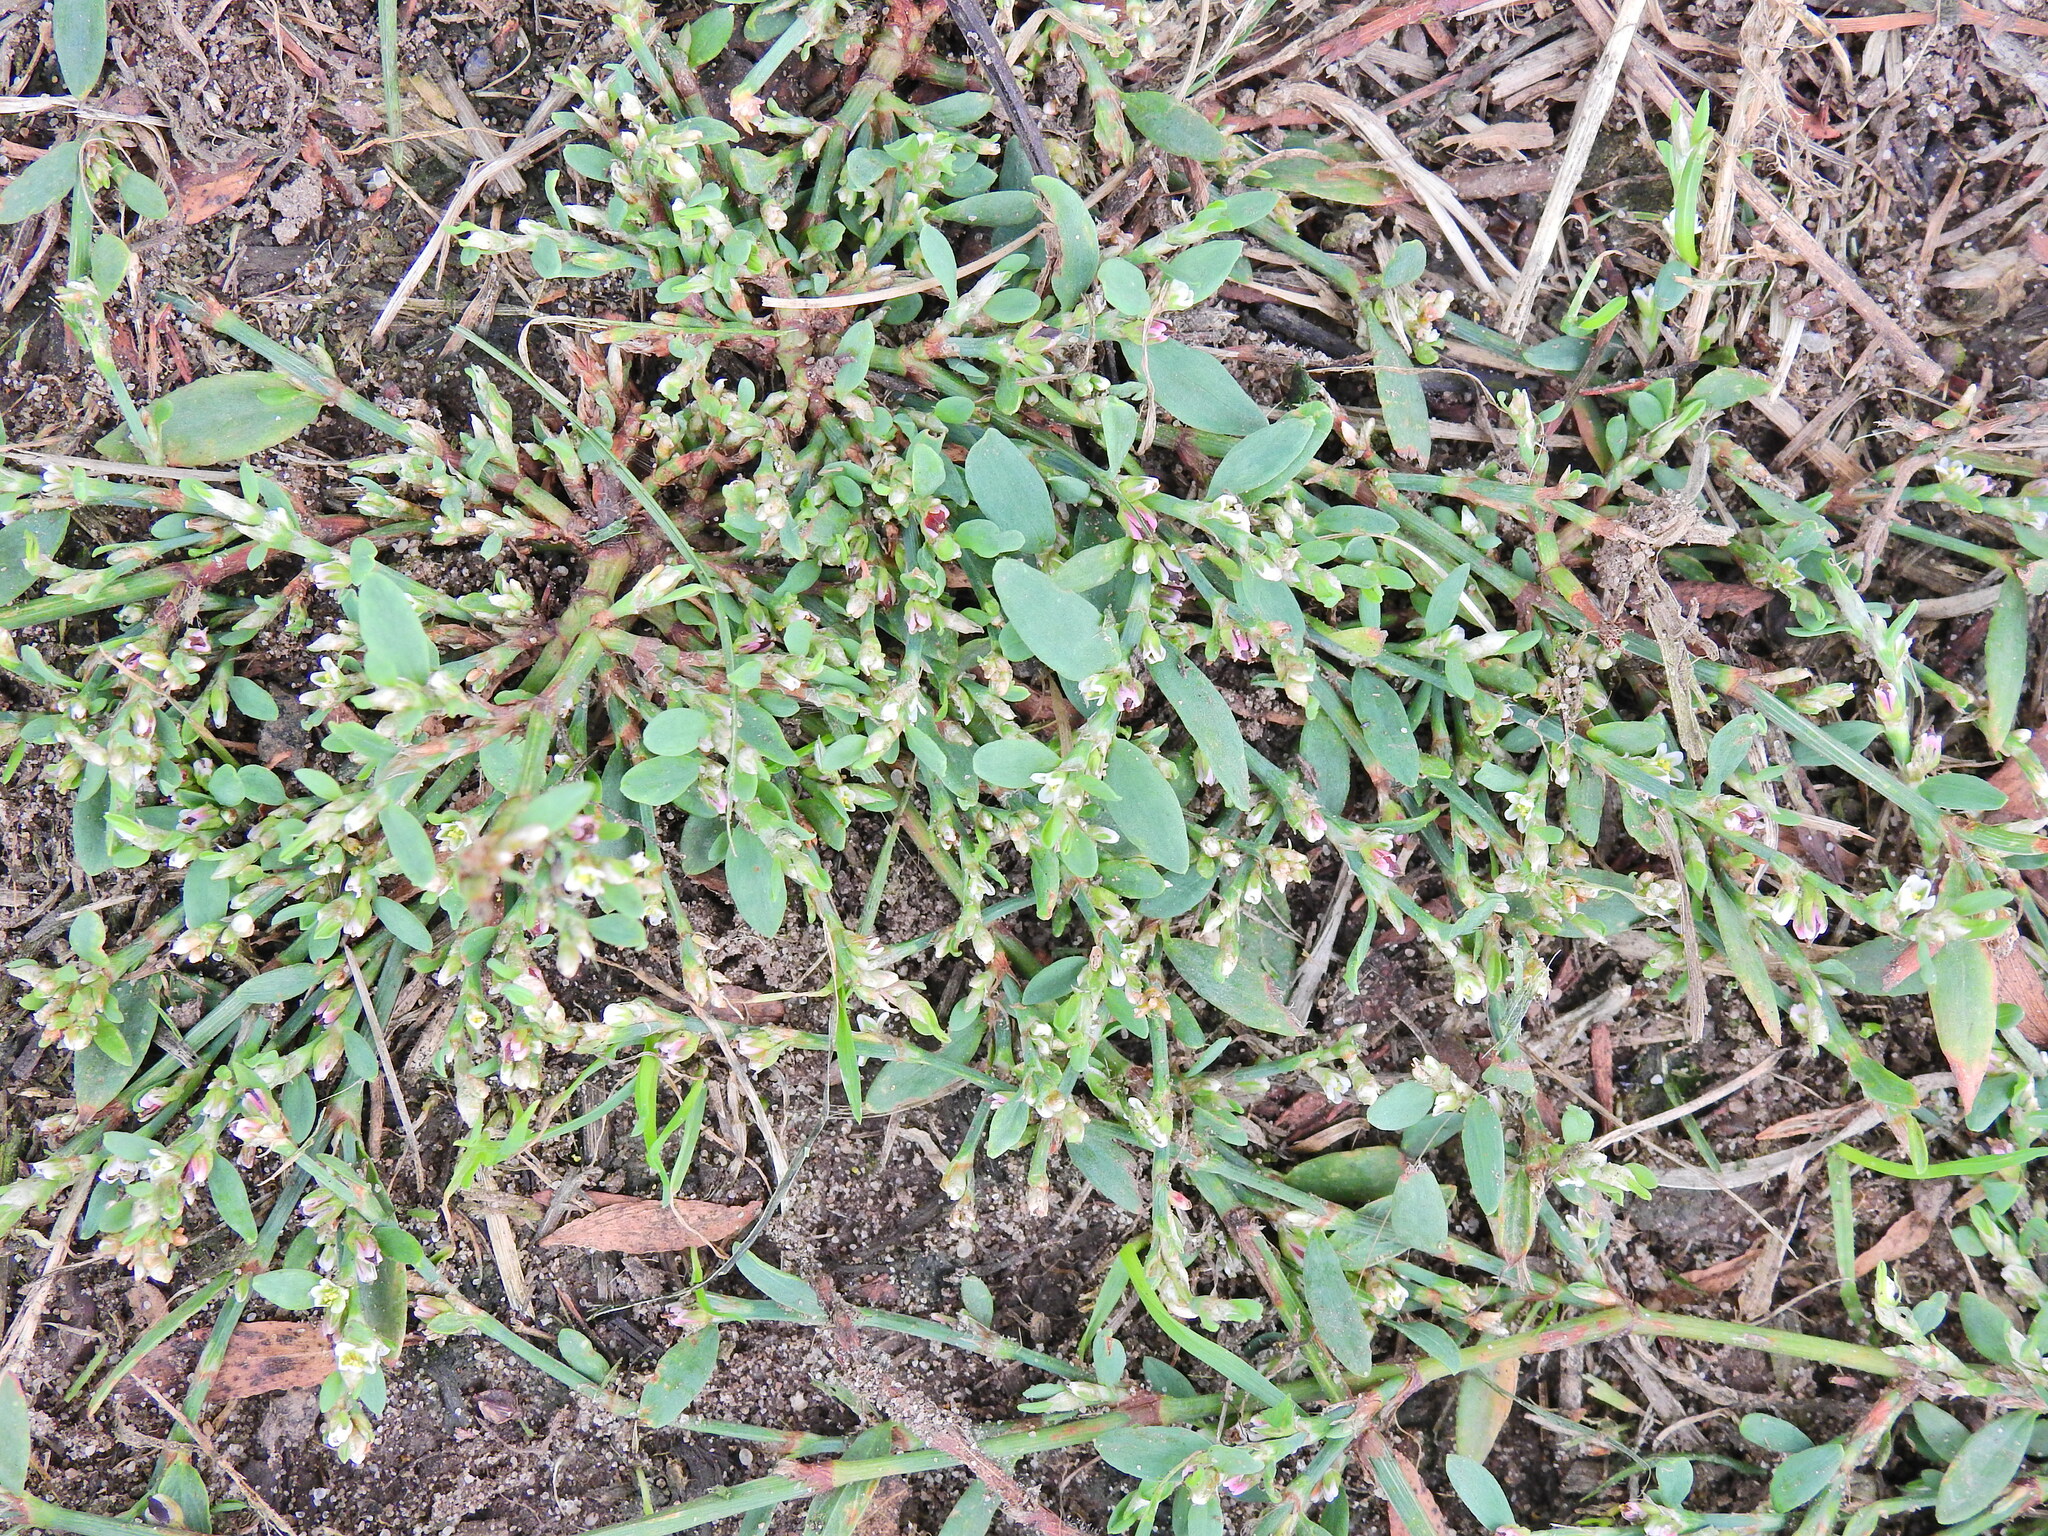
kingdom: Plantae
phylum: Tracheophyta
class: Magnoliopsida
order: Caryophyllales
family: Polygonaceae
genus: Polygonum
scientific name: Polygonum aviculare
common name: Prostrate knotweed
